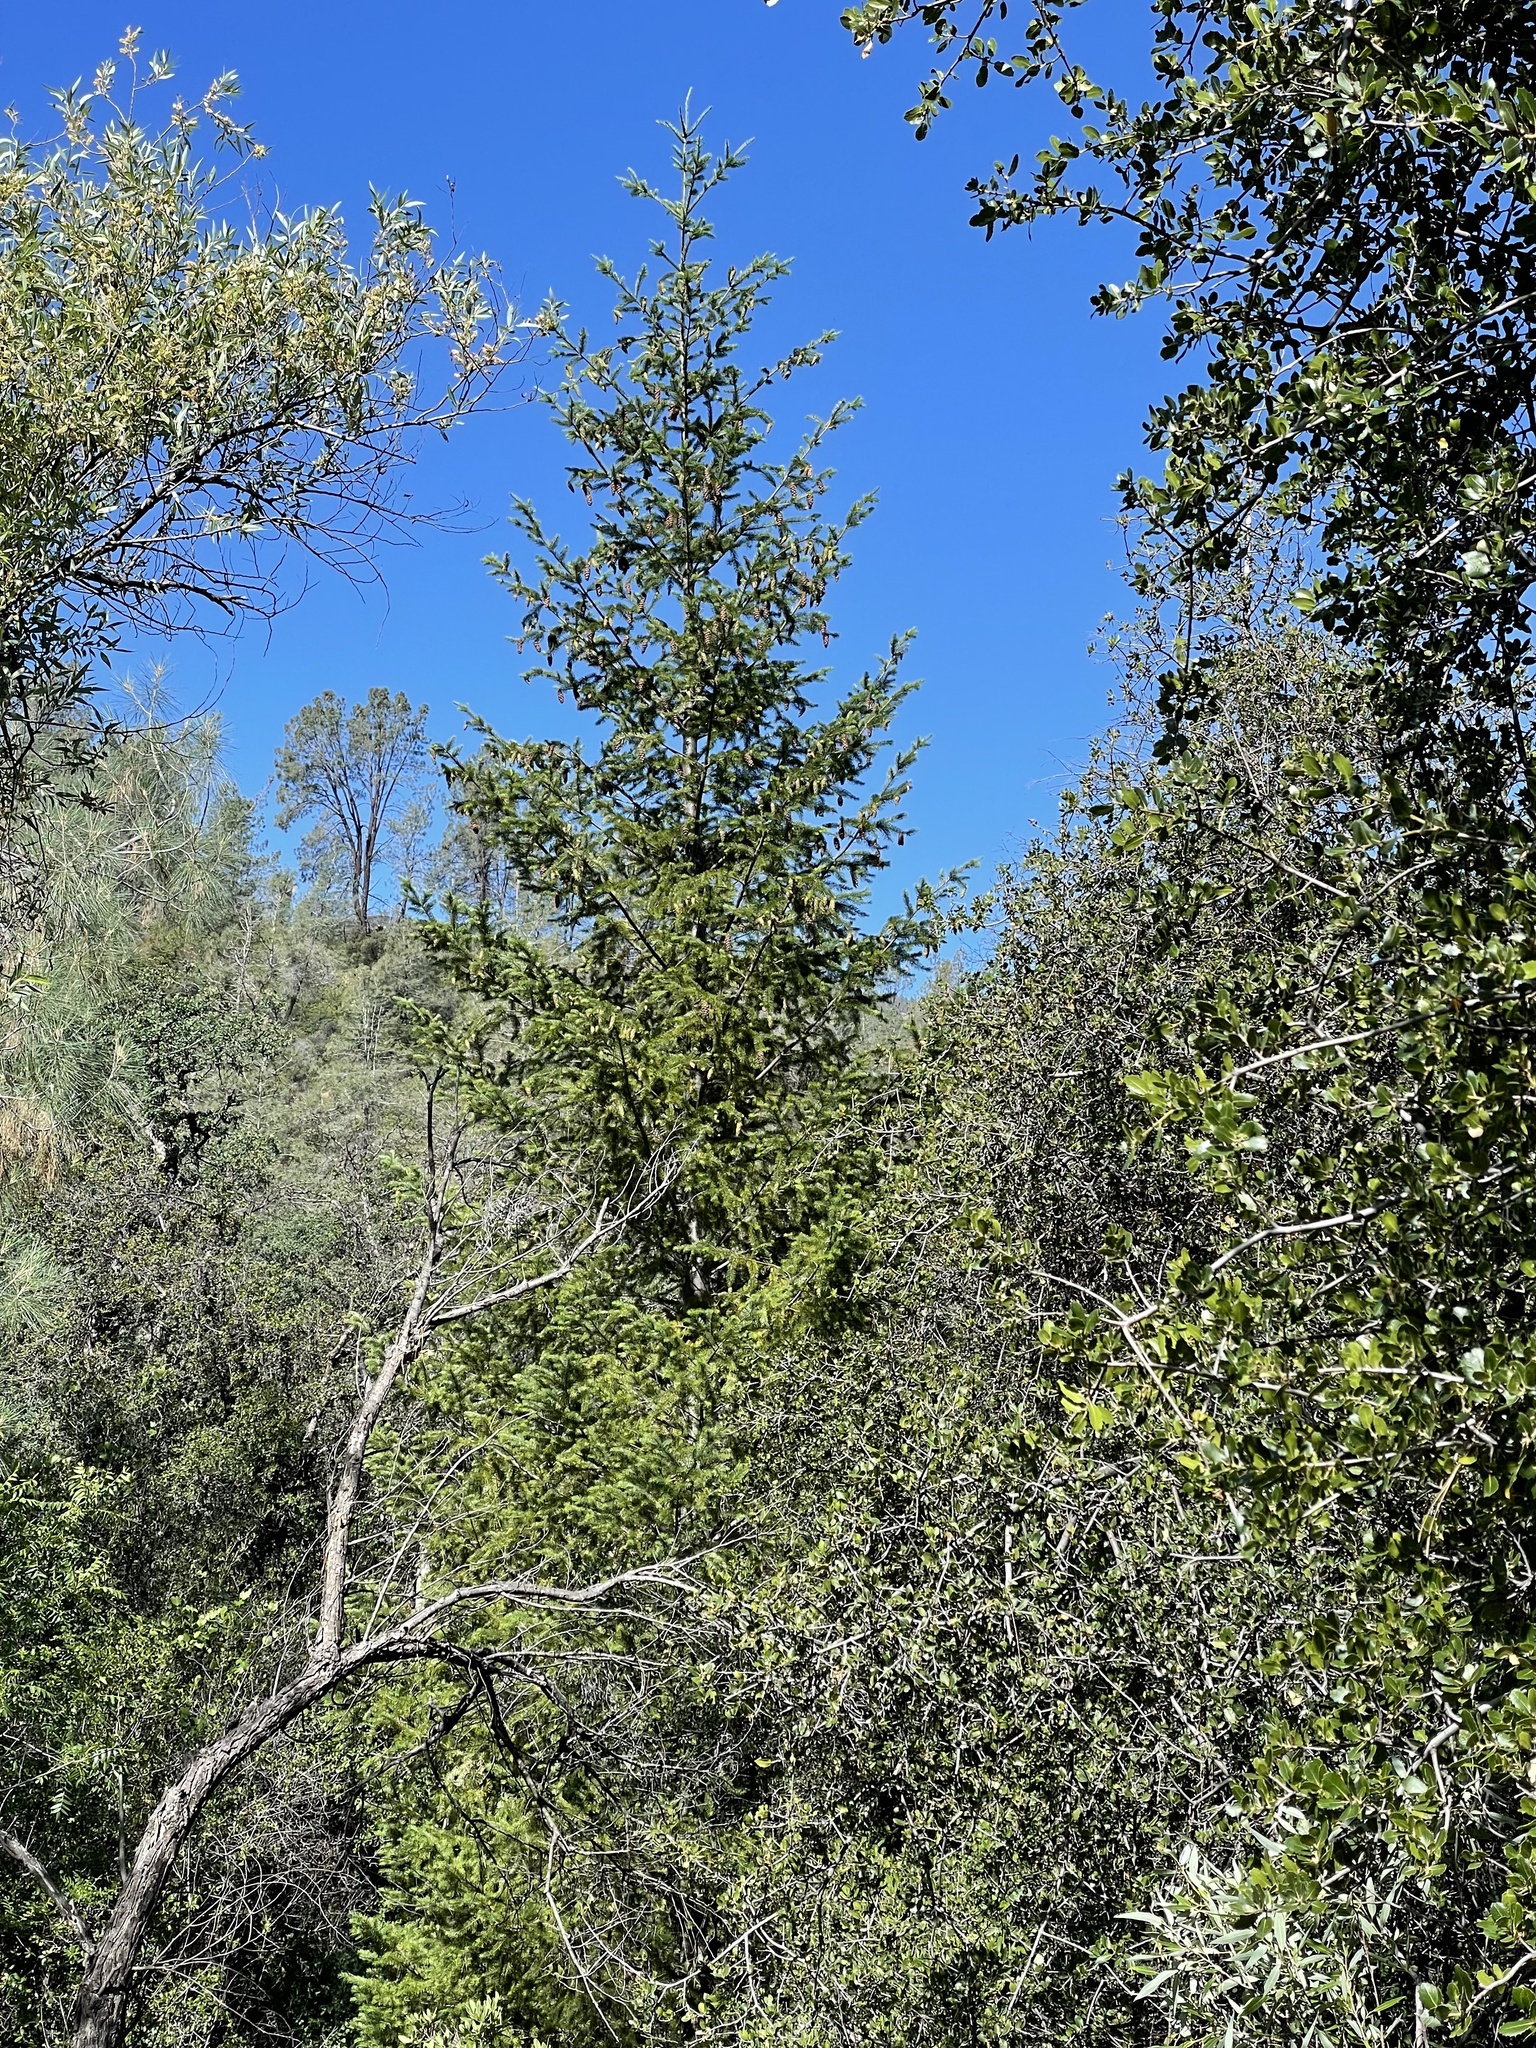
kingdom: Plantae
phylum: Tracheophyta
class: Pinopsida
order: Pinales
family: Pinaceae
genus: Pseudotsuga
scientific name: Pseudotsuga menziesii
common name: Douglas fir
